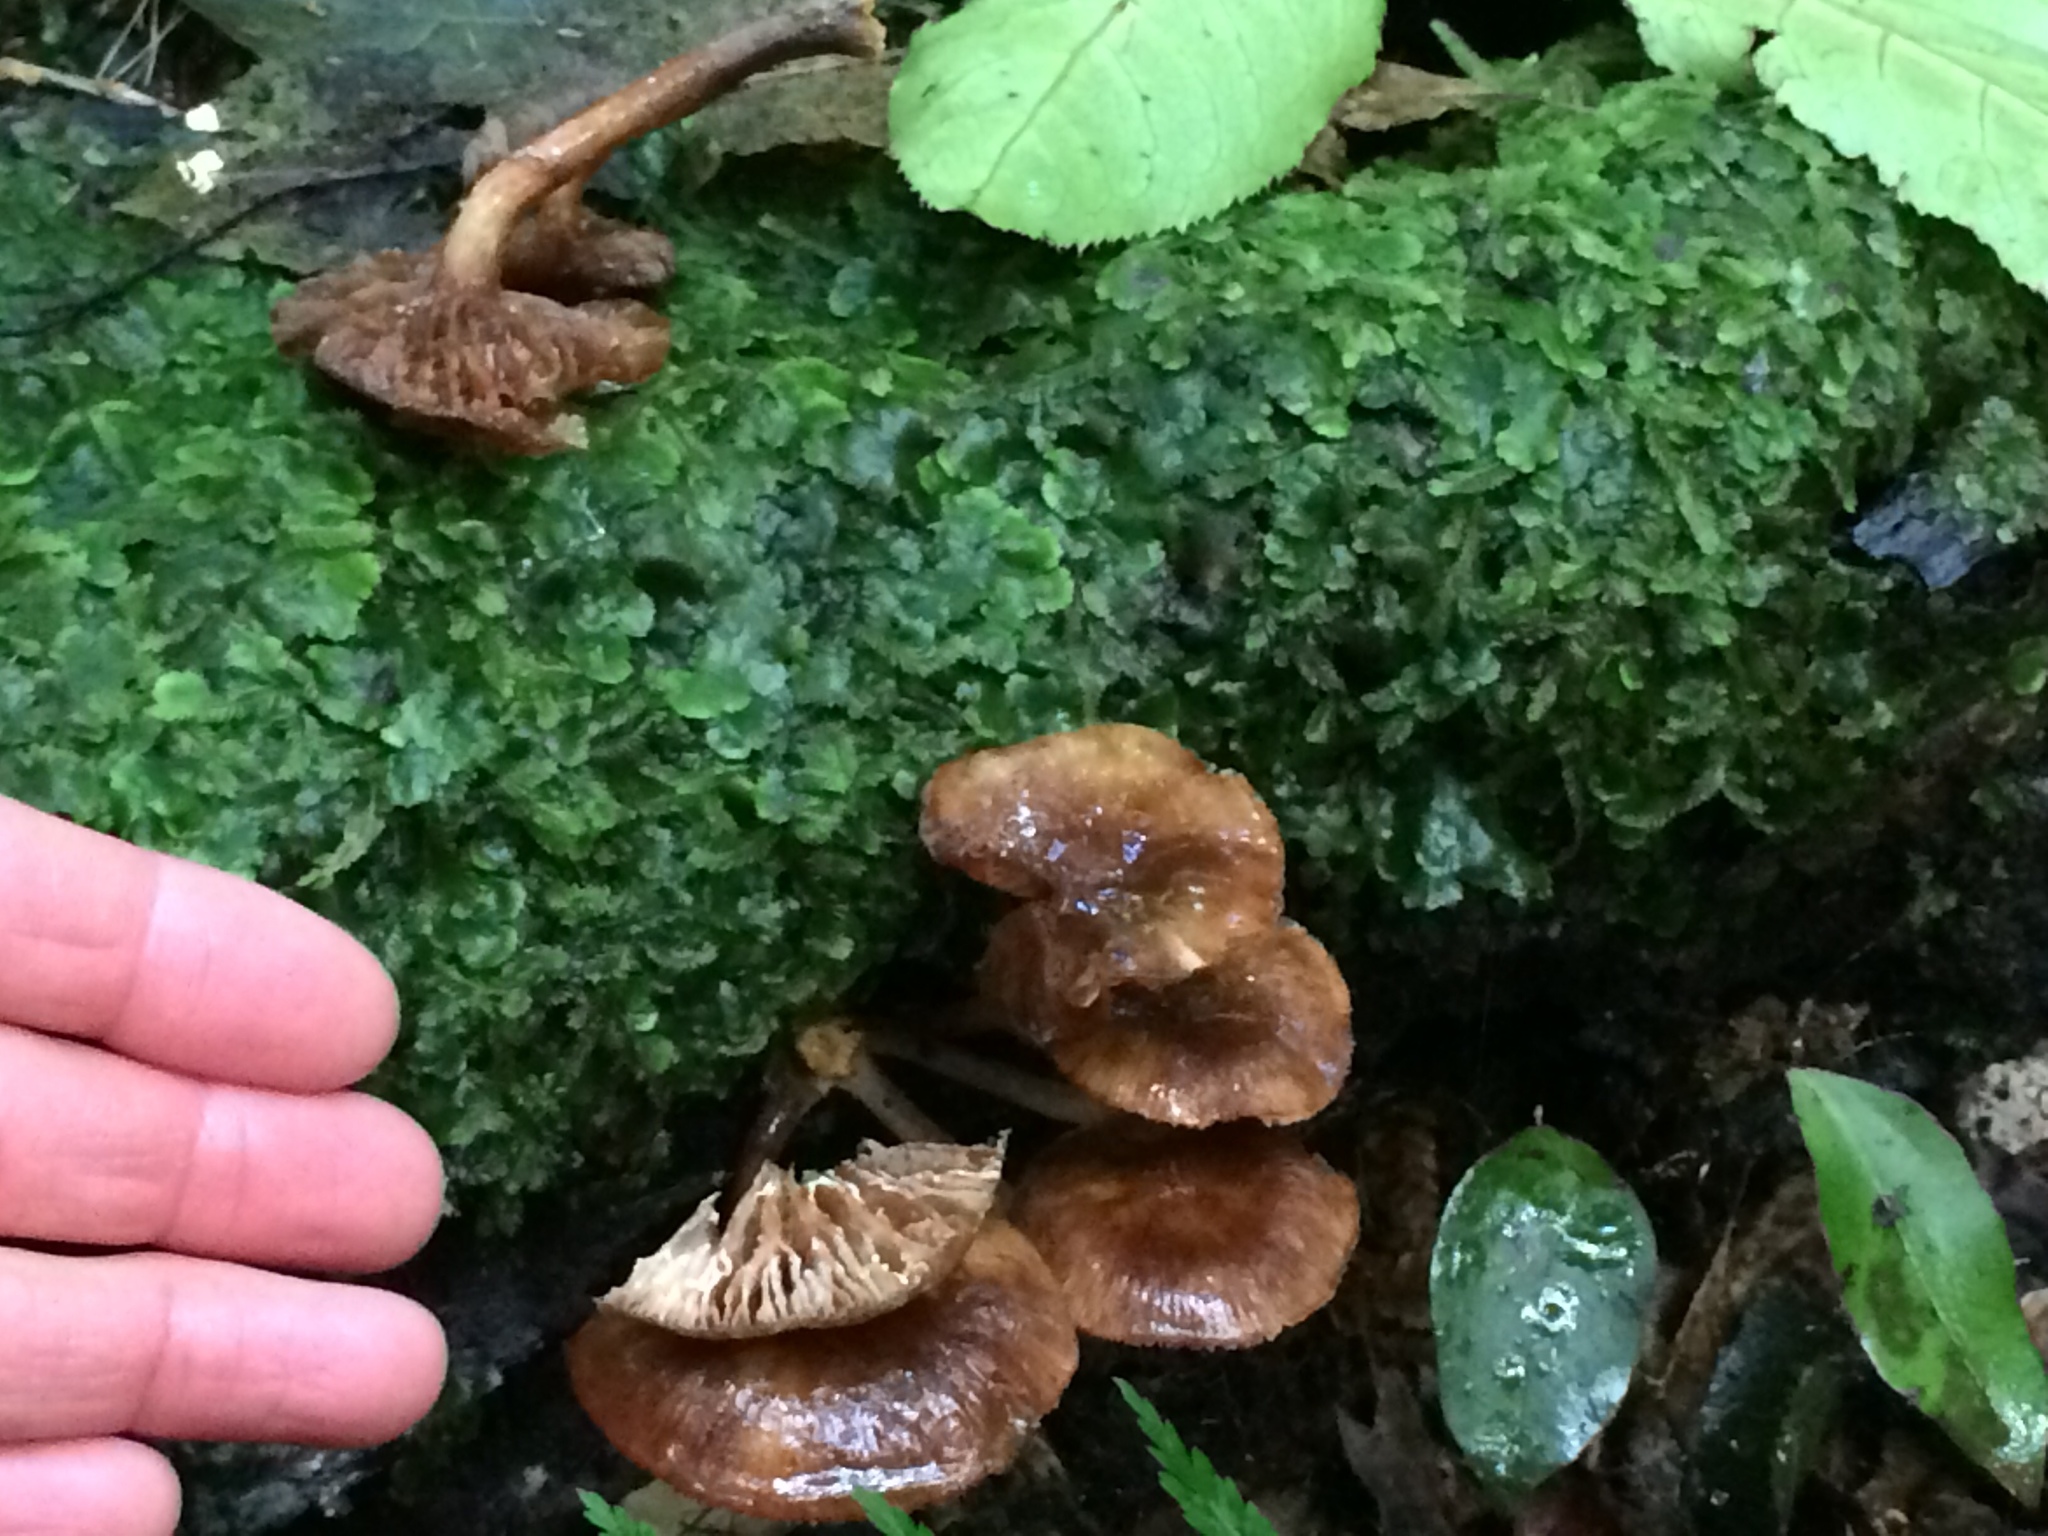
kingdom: Fungi
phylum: Basidiomycota
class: Agaricomycetes
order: Agaricales
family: Physalacriaceae
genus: Armillaria
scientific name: Armillaria novae-zelandiae
